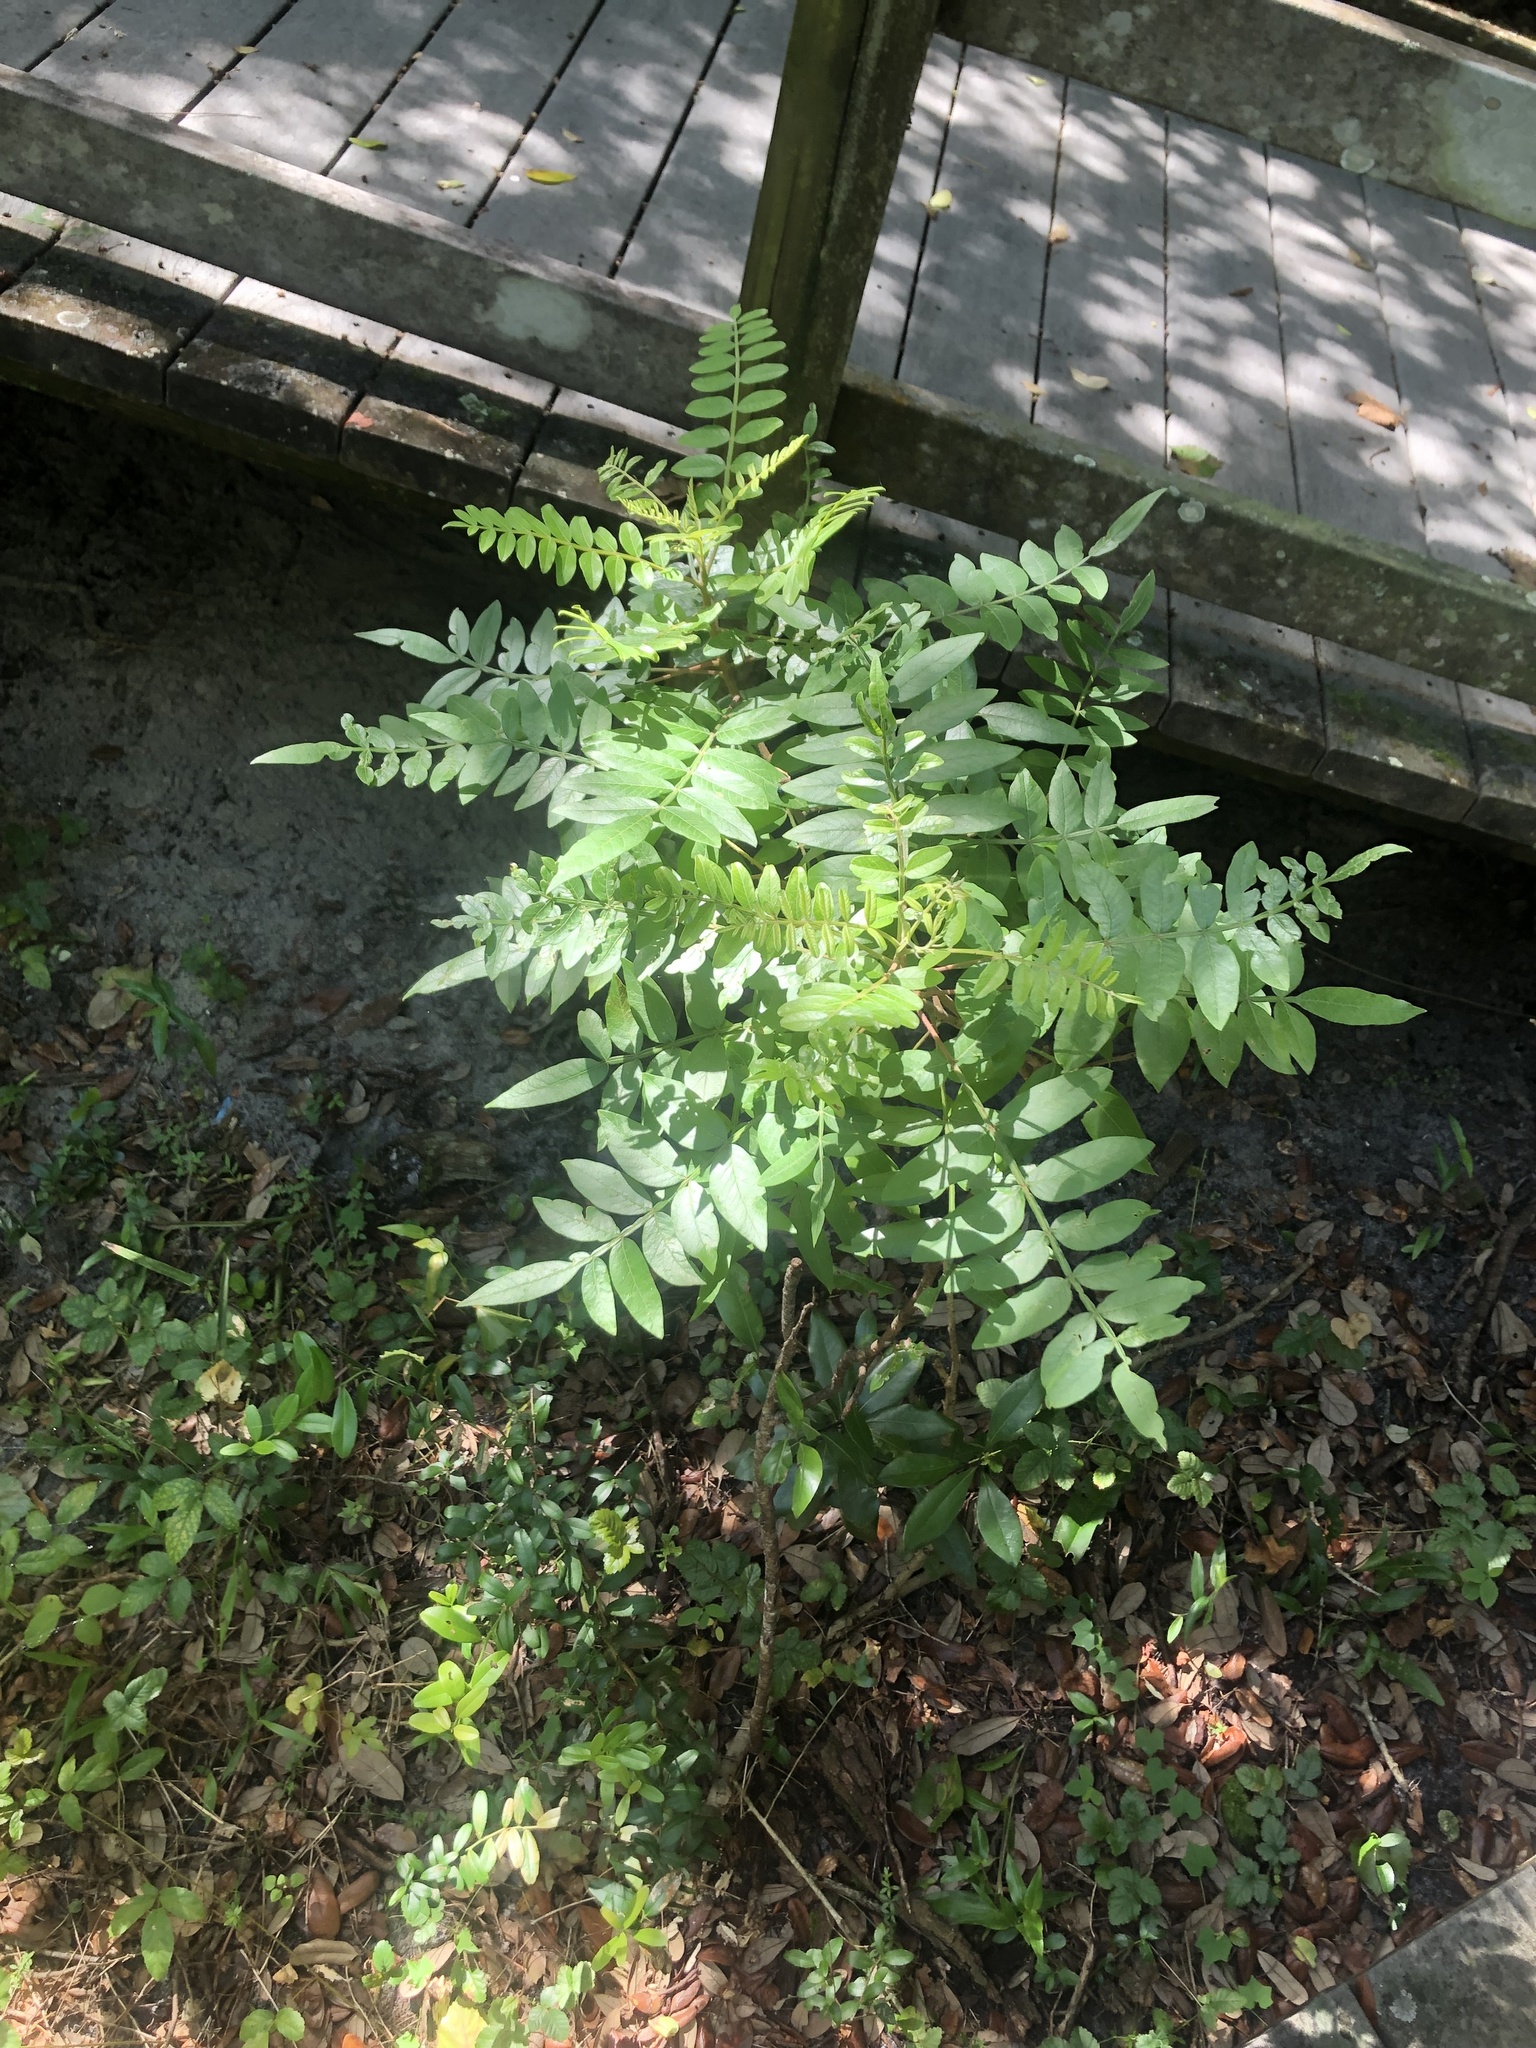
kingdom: Plantae
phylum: Tracheophyta
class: Magnoliopsida
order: Sapindales
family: Anacardiaceae
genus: Rhus
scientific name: Rhus copallina
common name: Shining sumac
